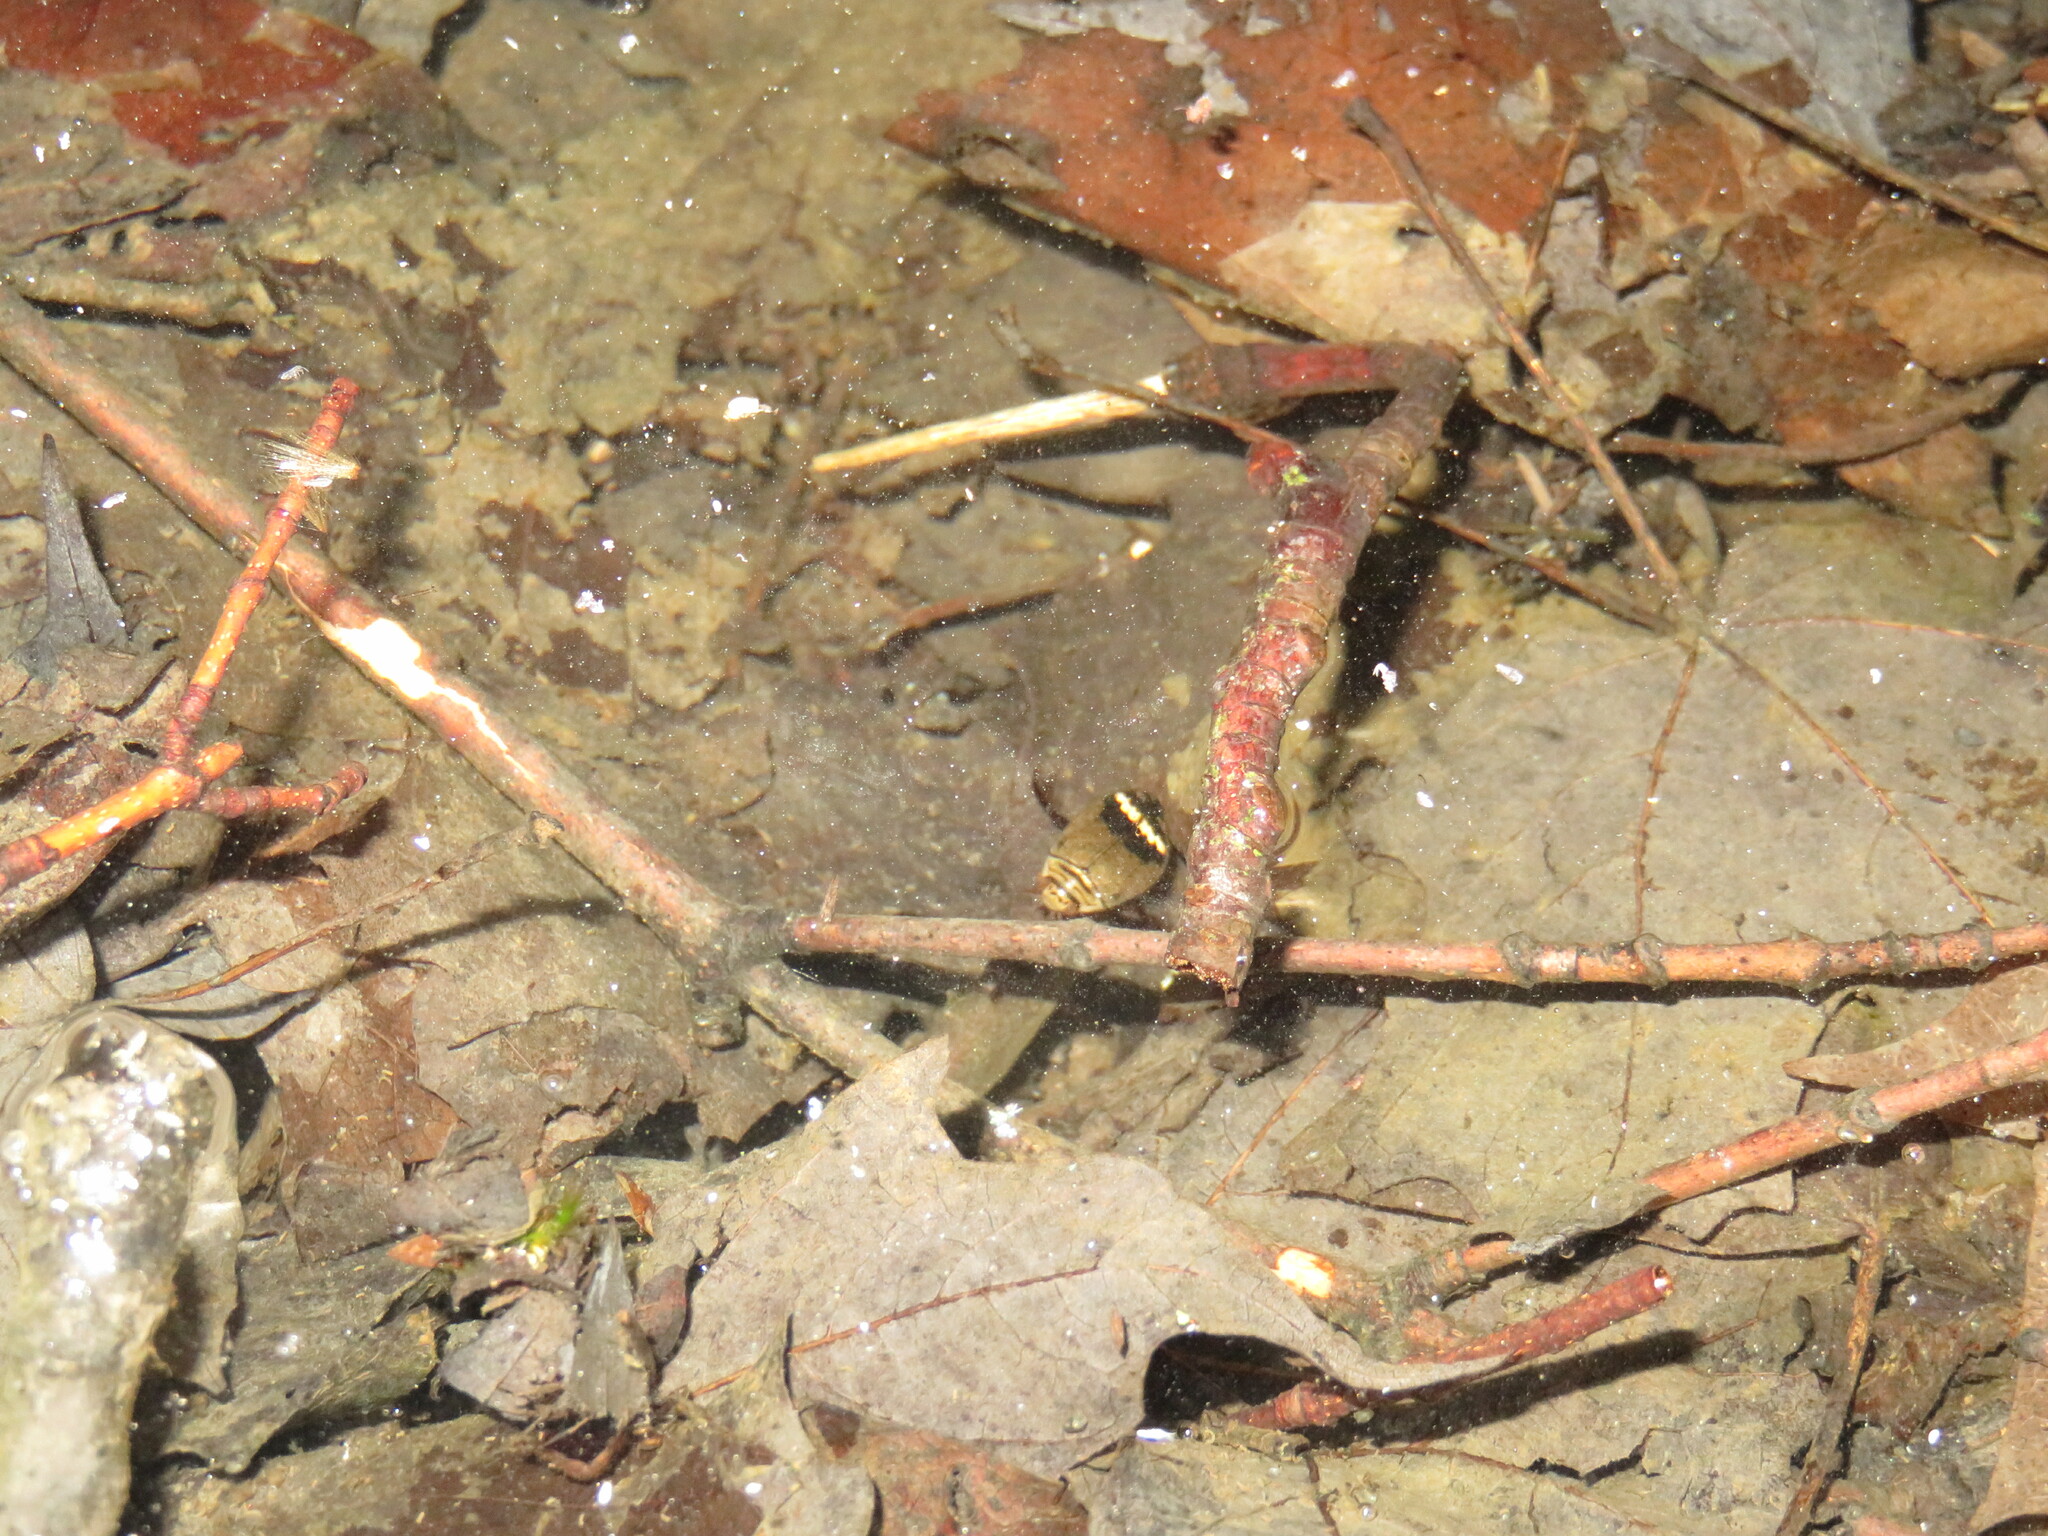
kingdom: Animalia
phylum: Arthropoda
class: Insecta
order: Coleoptera
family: Dytiscidae
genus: Acilius
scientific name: Acilius mediatus
